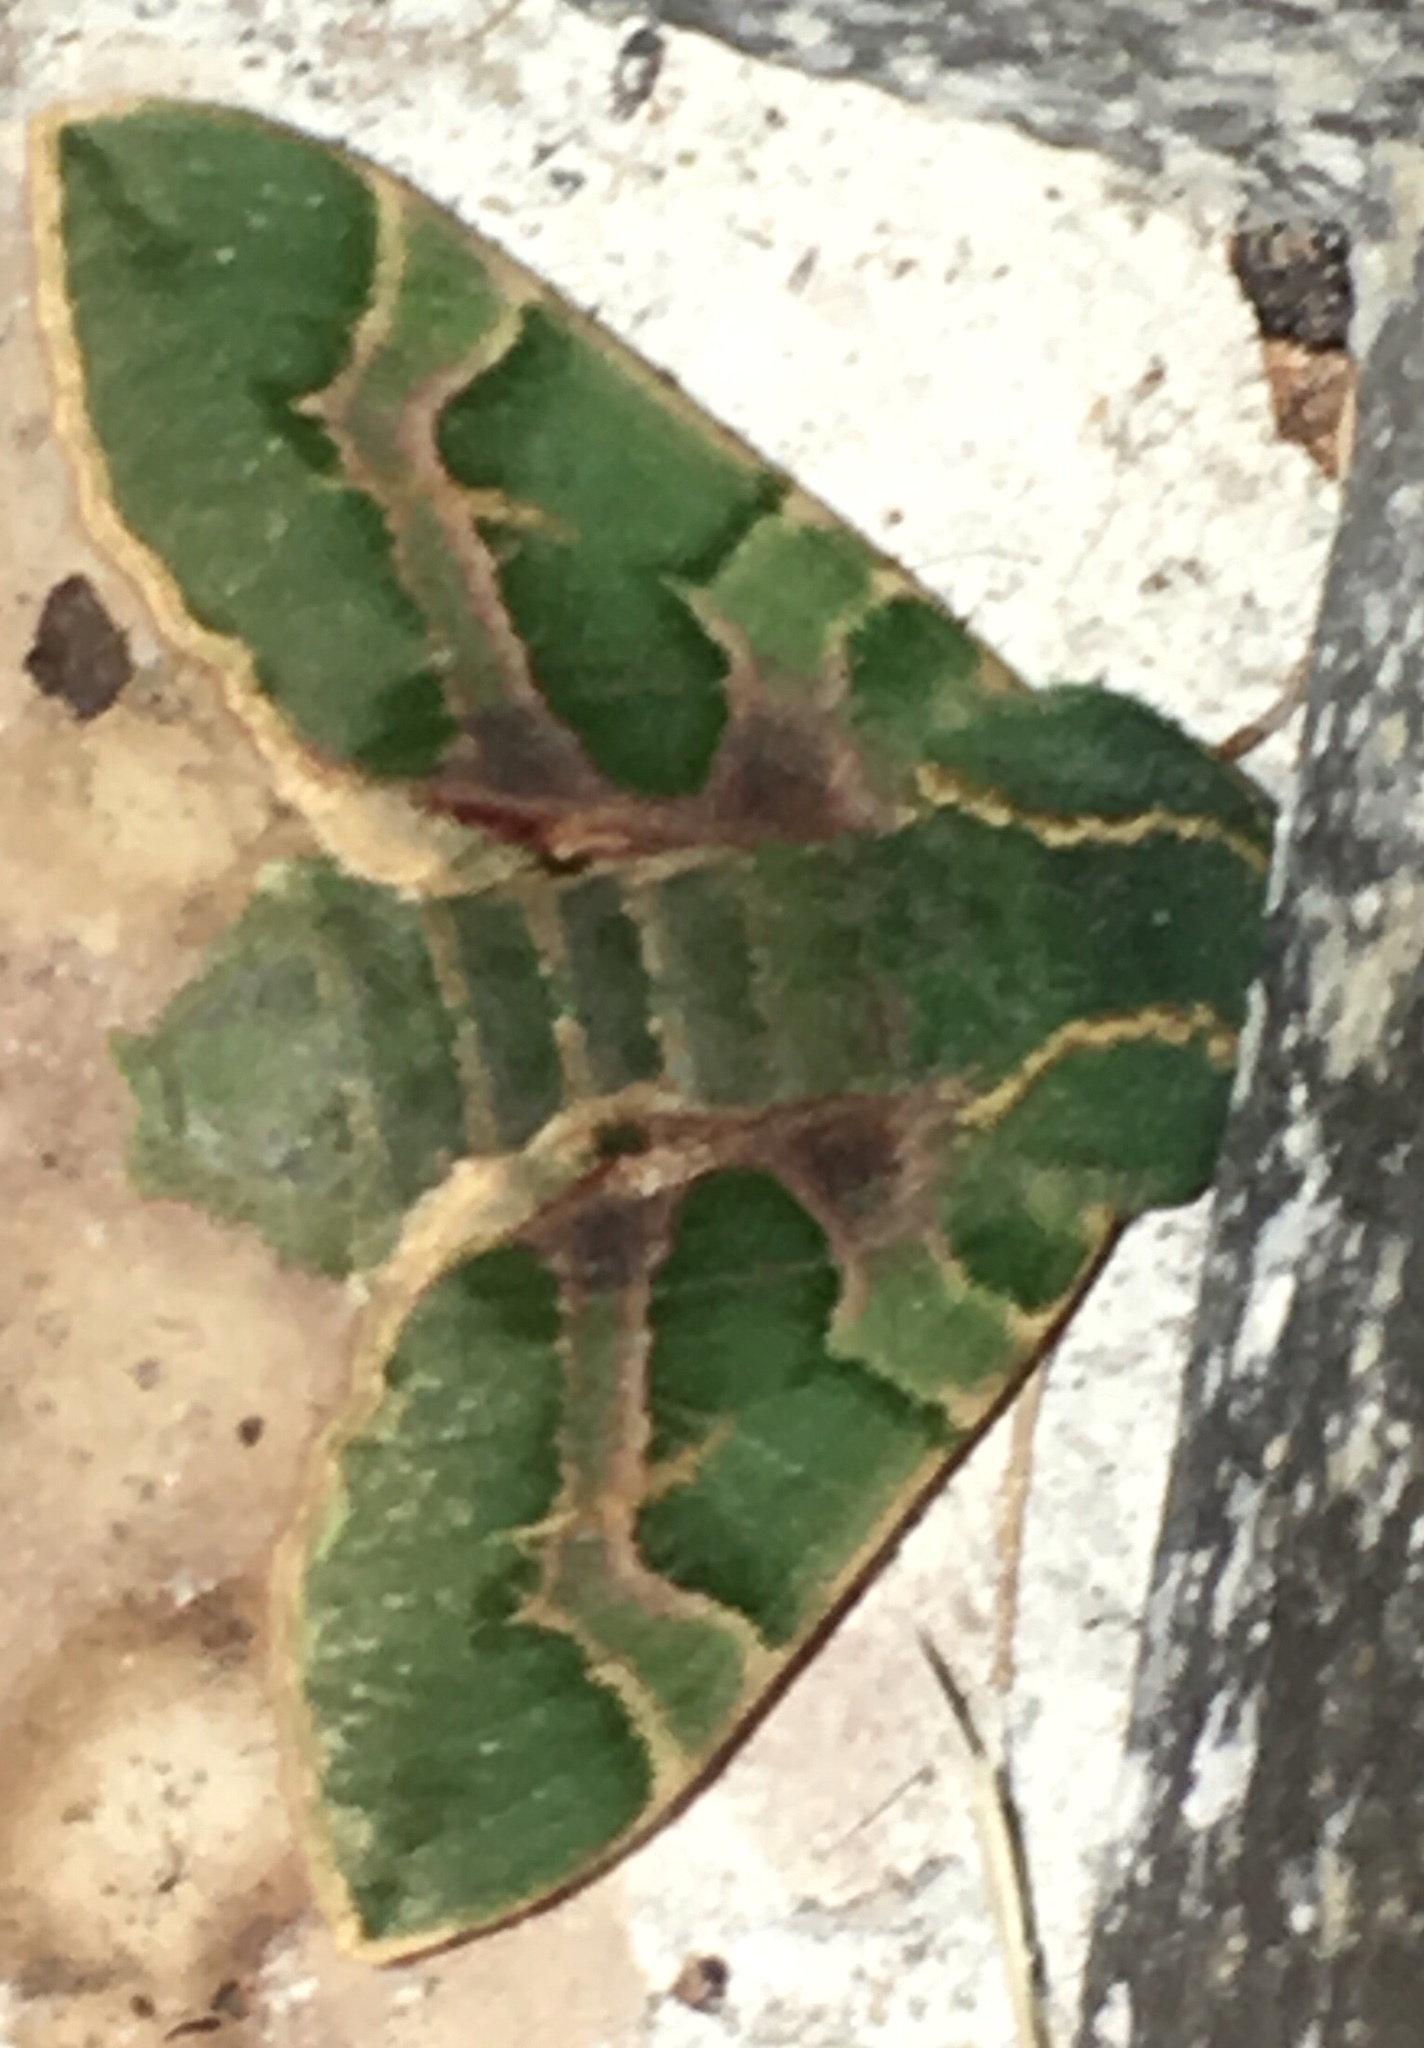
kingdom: Animalia
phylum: Arthropoda
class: Insecta
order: Lepidoptera
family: Sphingidae
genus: Proserpinus
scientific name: Proserpinus lucidus
